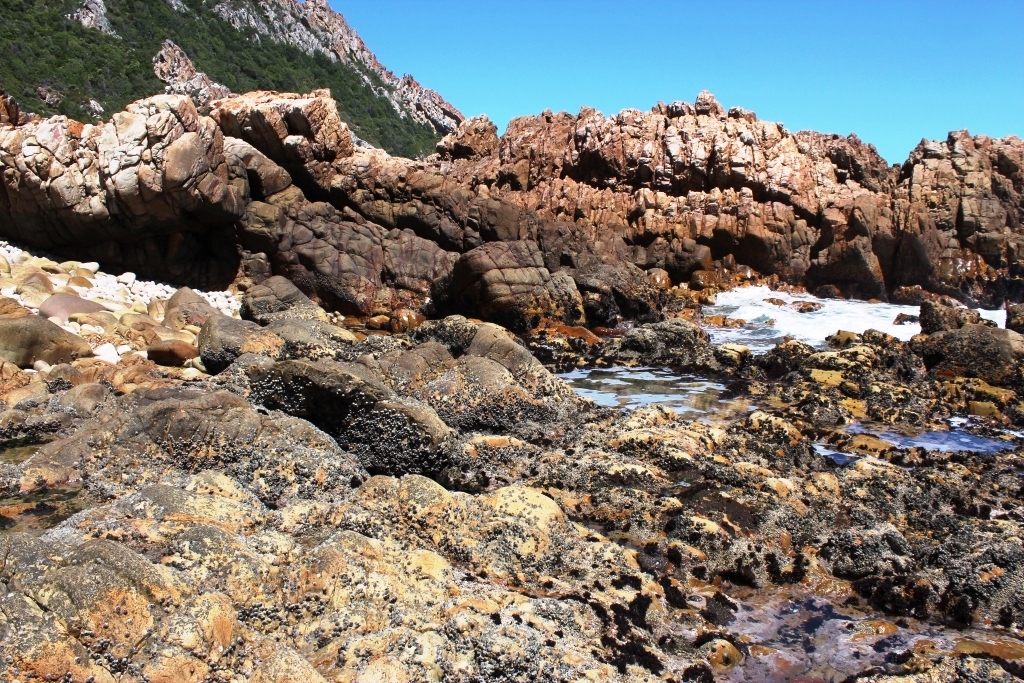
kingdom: Animalia
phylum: Arthropoda
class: Maxillopoda
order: Sessilia
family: Tetraclitidae
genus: Tetraclita
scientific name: Tetraclita serrata
